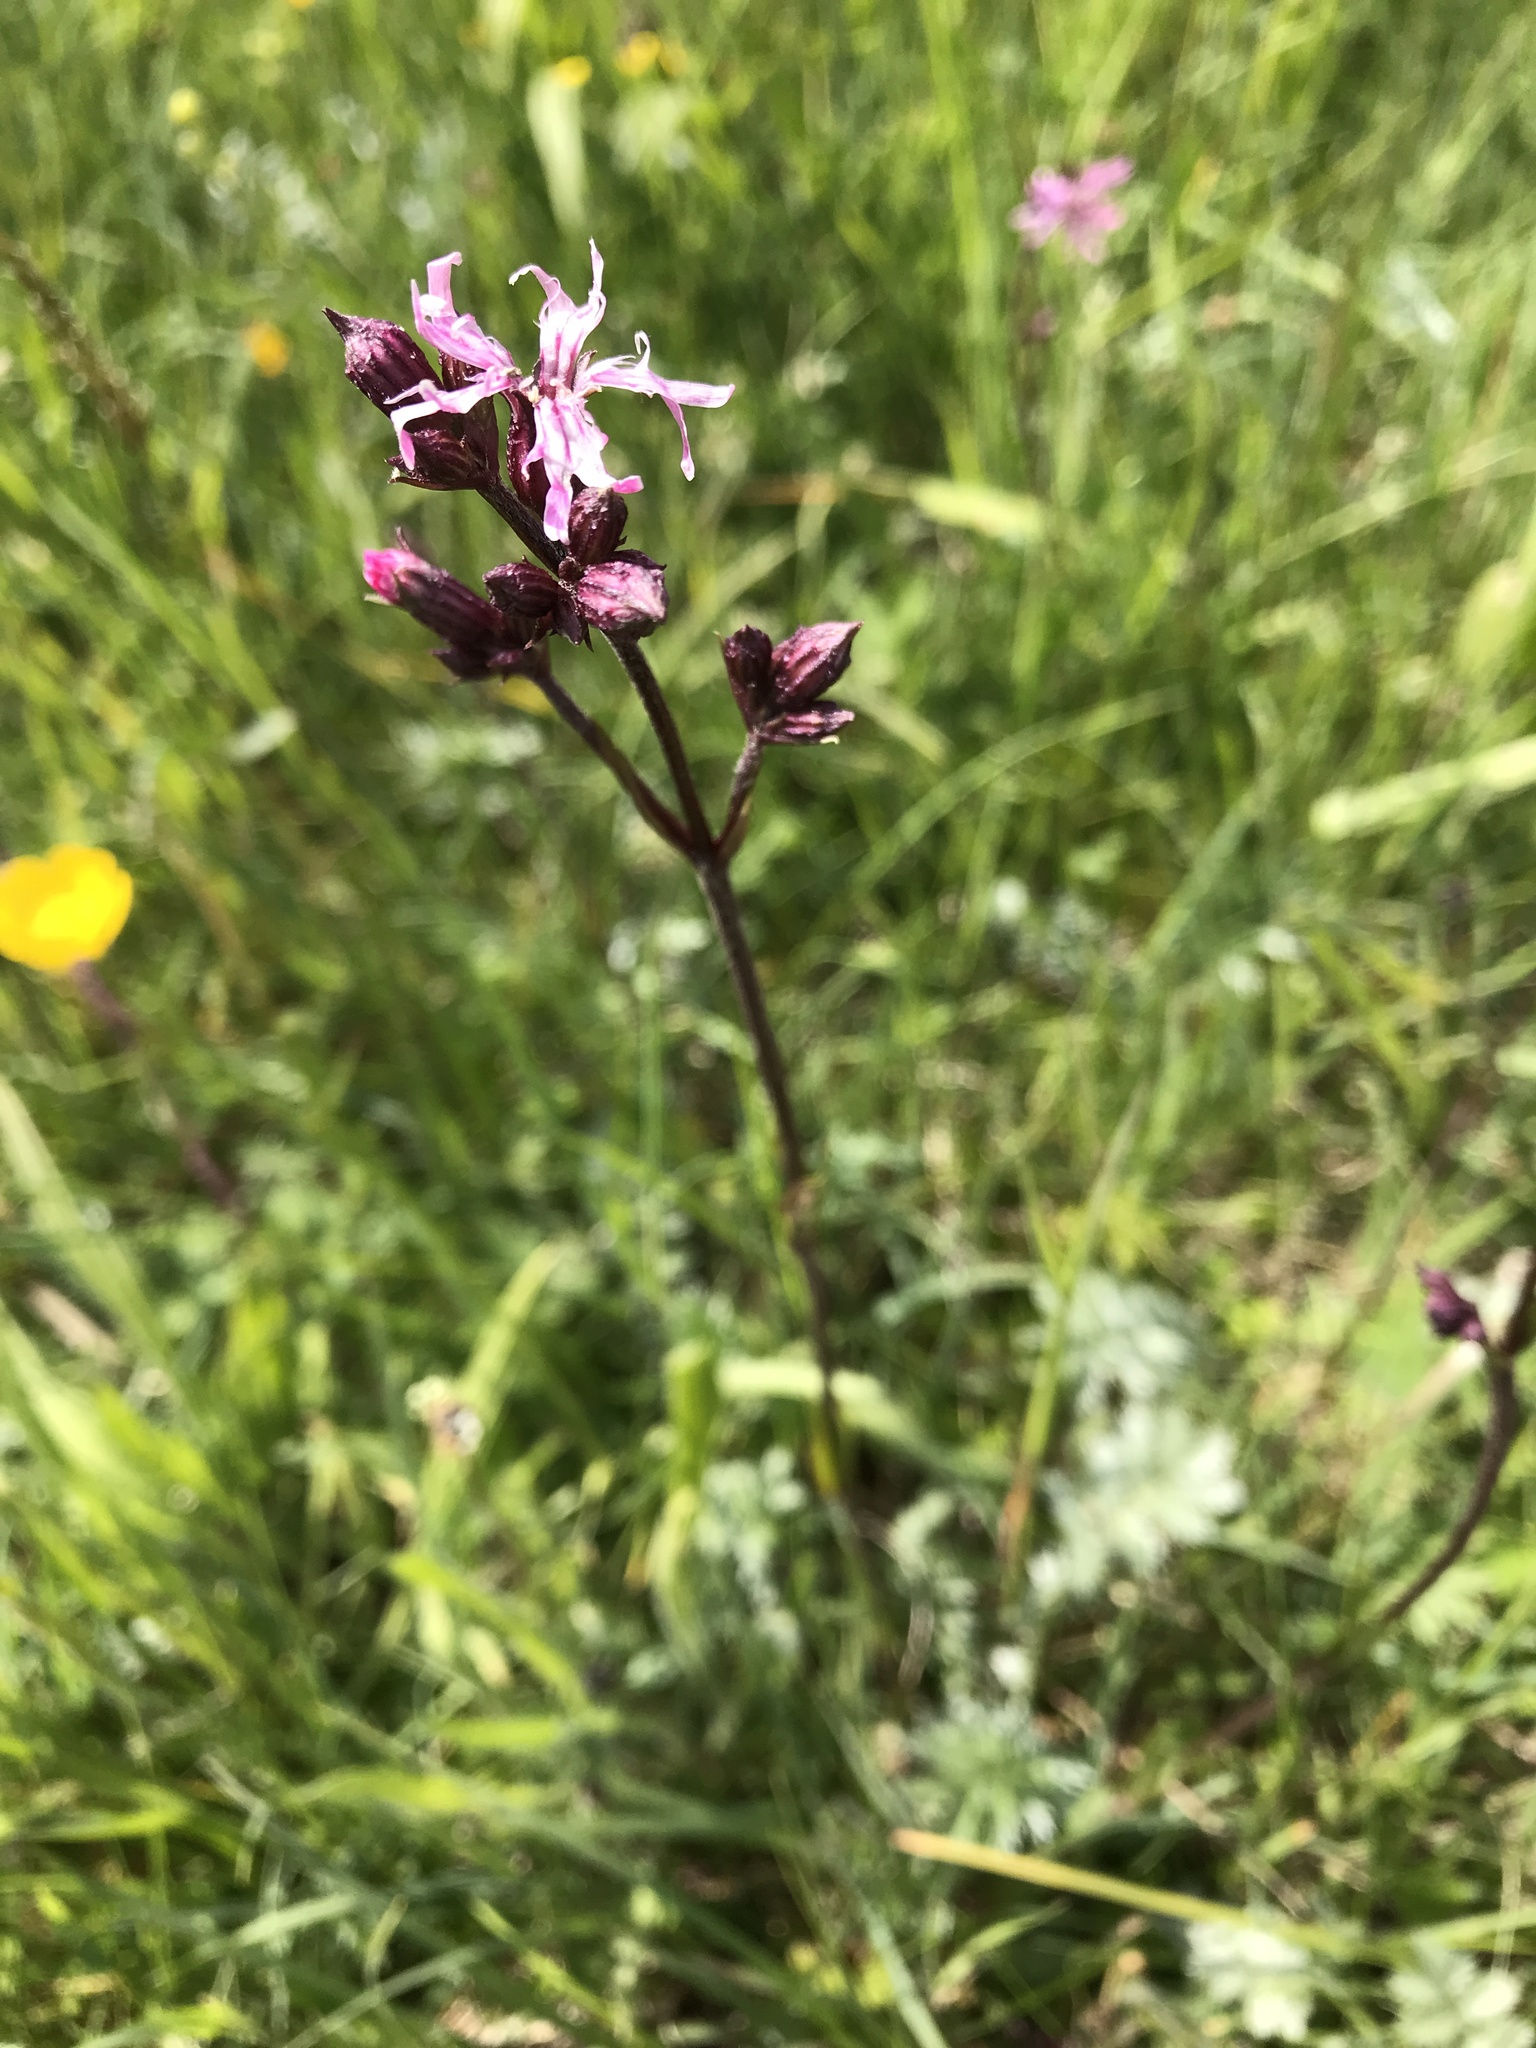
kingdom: Plantae
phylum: Tracheophyta
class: Magnoliopsida
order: Caryophyllales
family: Caryophyllaceae
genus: Silene
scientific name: Silene flos-cuculi
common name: Ragged-robin
